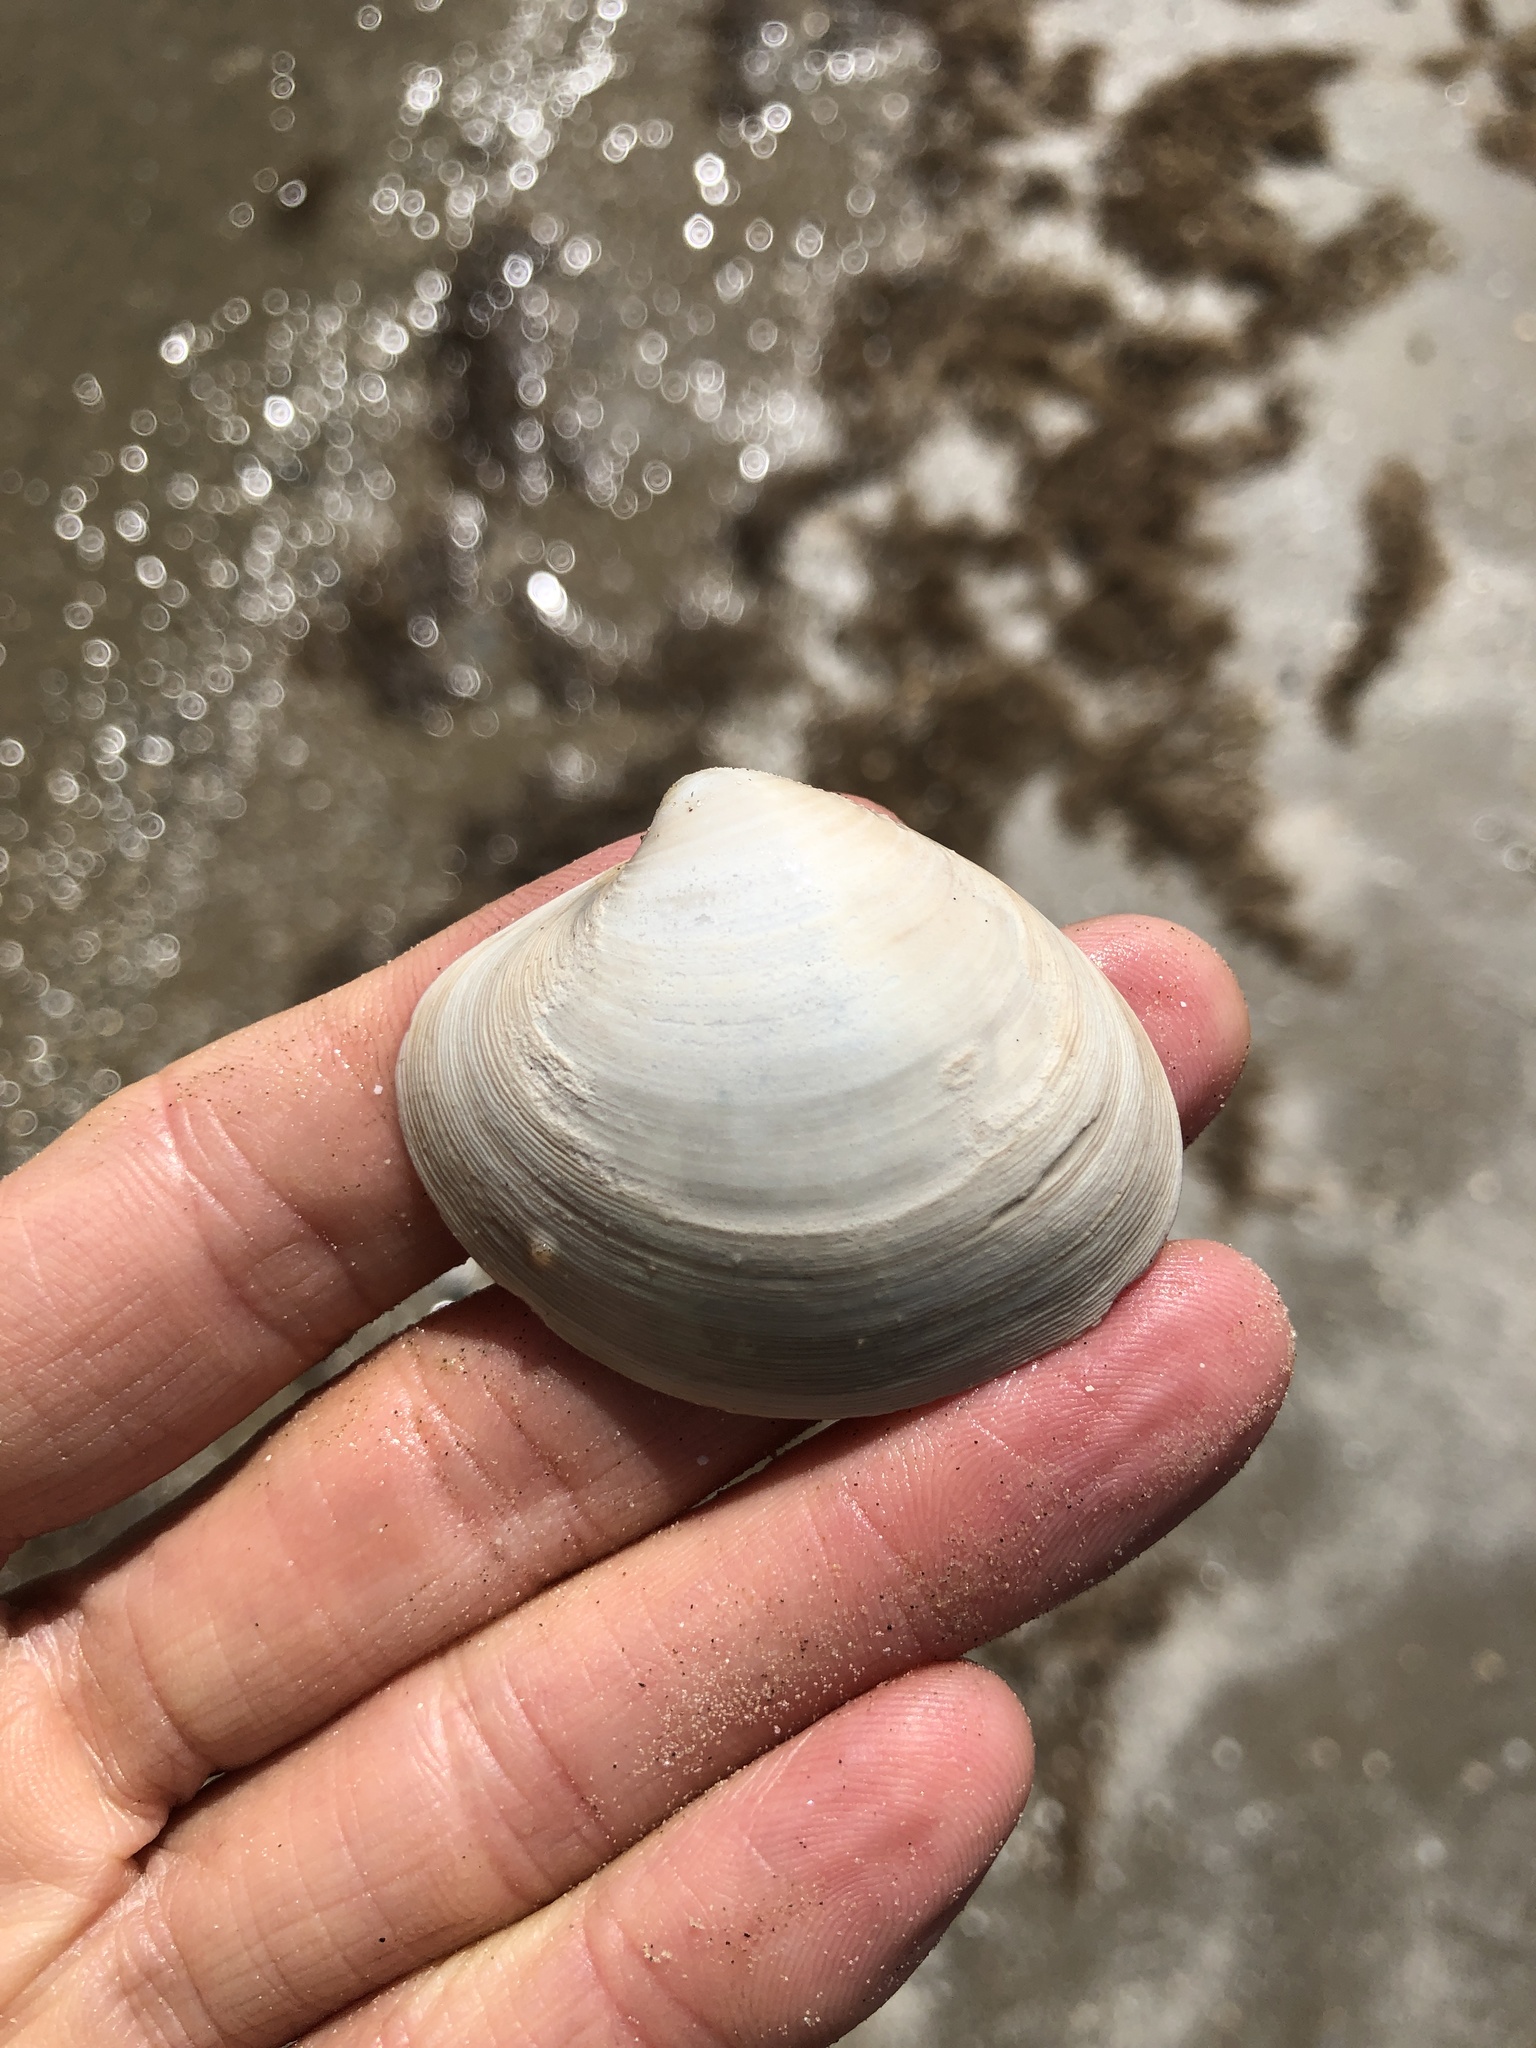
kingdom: Animalia
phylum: Mollusca
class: Bivalvia
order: Venerida
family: Veneridae
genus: Agriopoma
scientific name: Agriopoma texasianum
